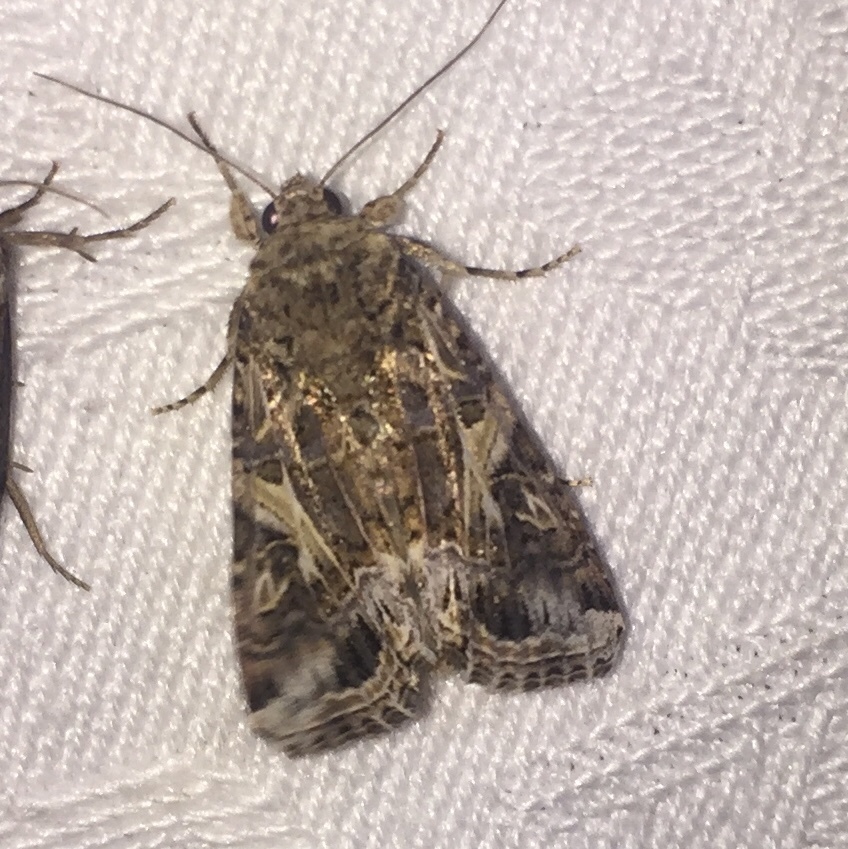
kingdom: Animalia
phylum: Arthropoda
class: Insecta
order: Lepidoptera
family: Noctuidae
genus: Spodoptera
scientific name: Spodoptera ornithogalli
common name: Yellow-striped armyworm
